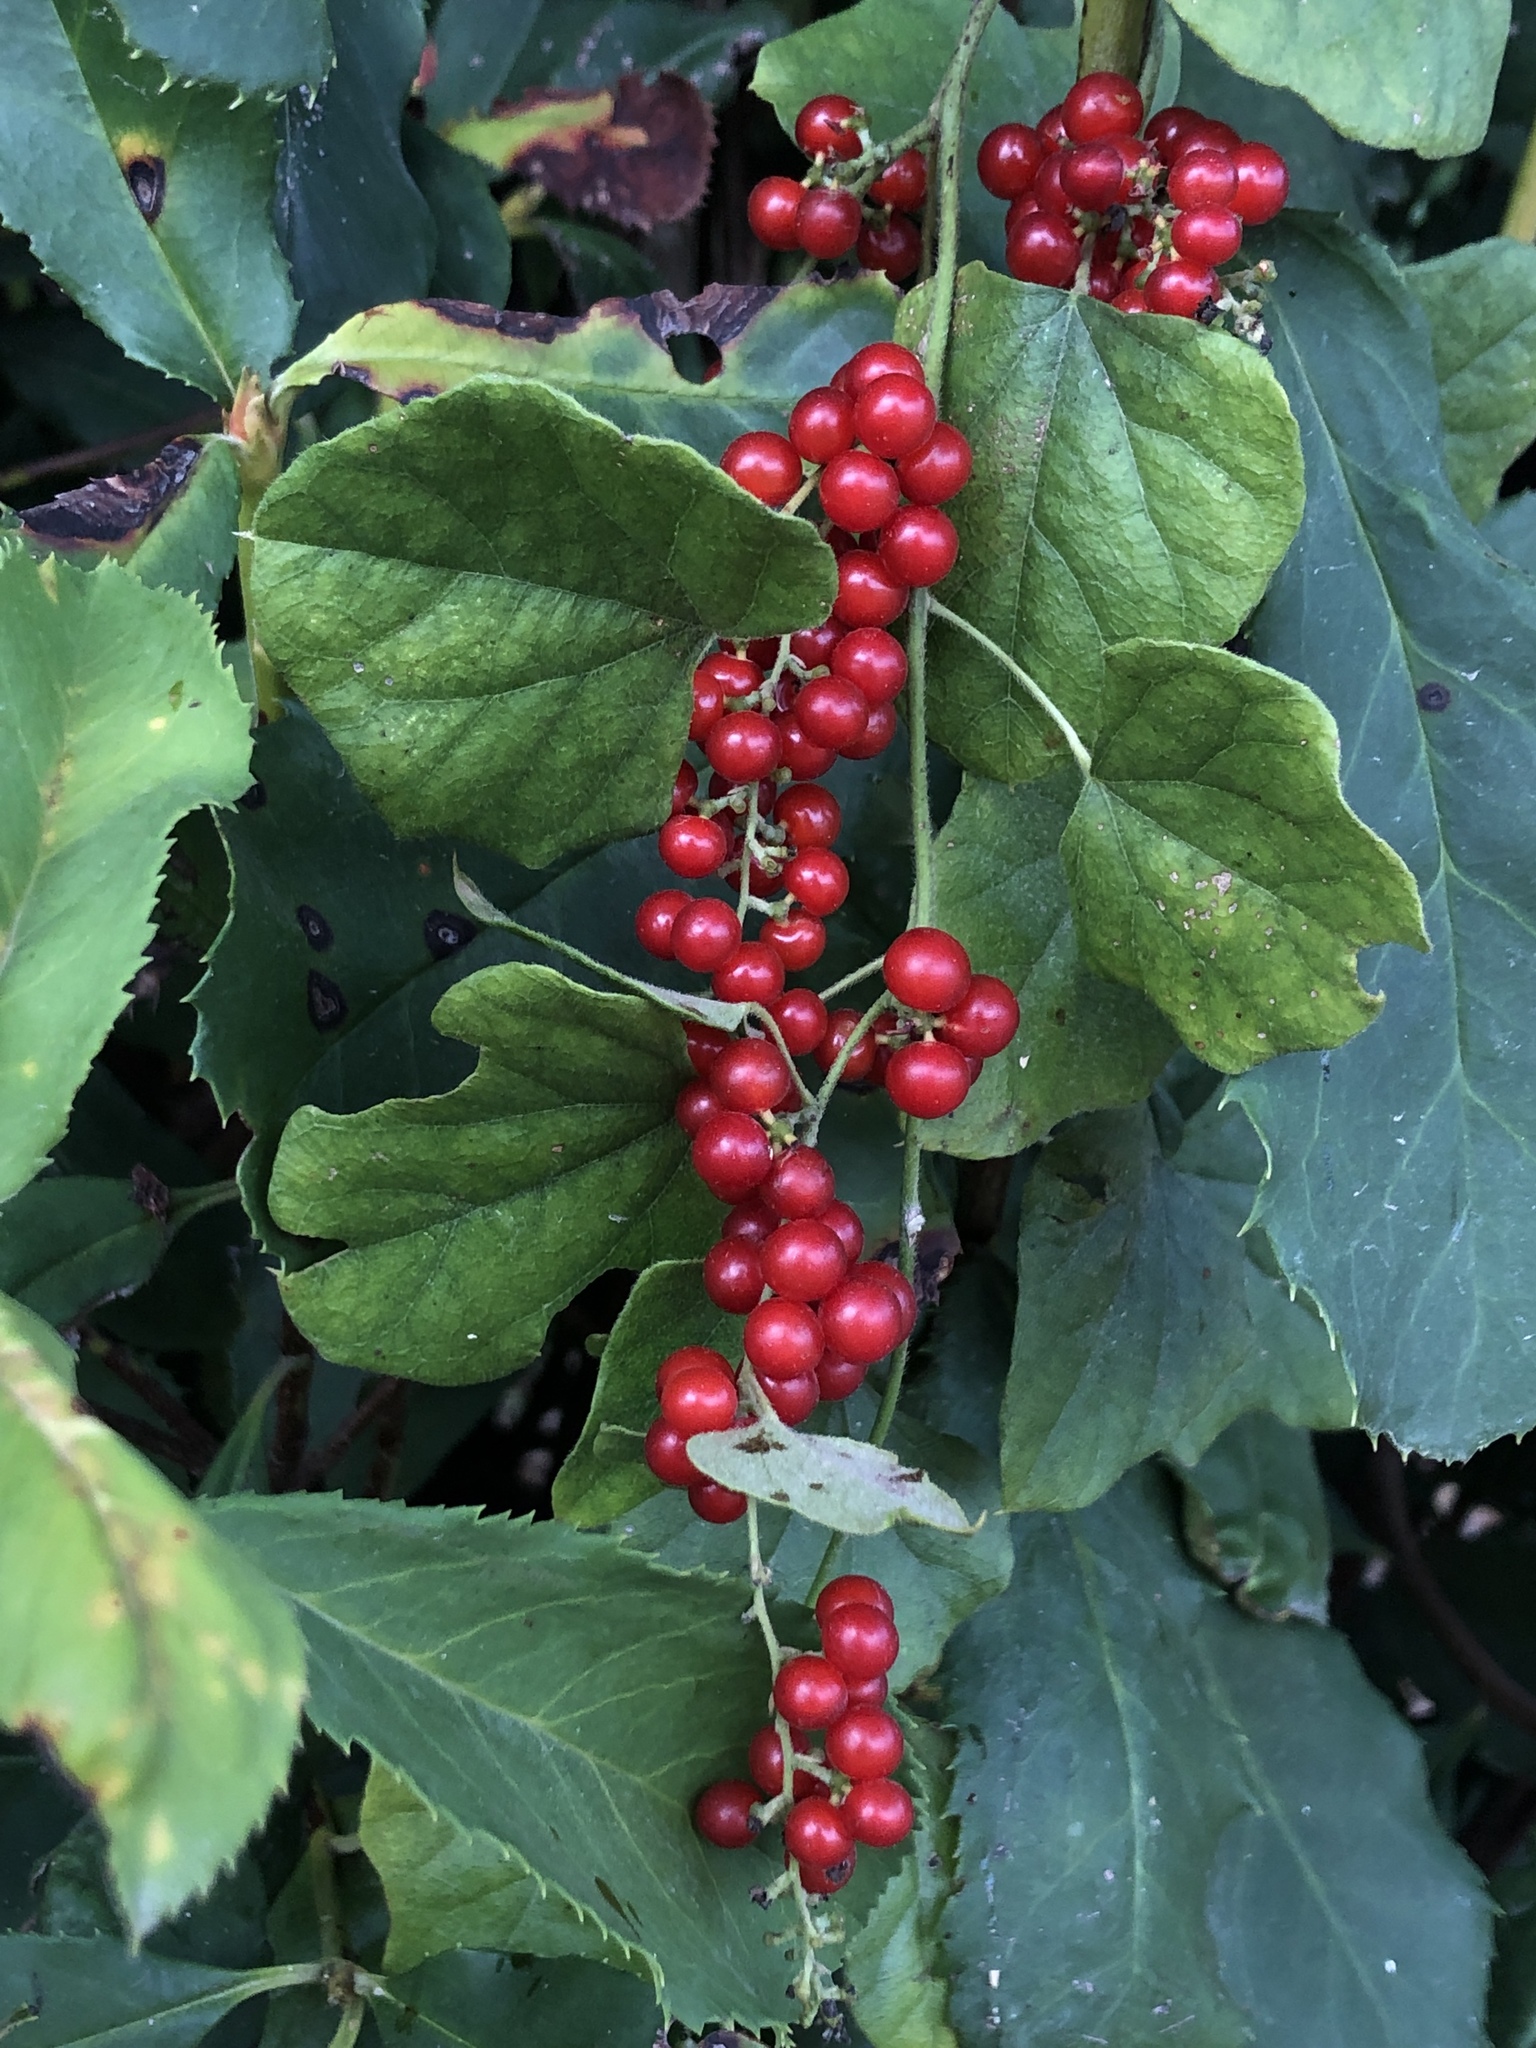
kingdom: Plantae
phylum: Tracheophyta
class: Magnoliopsida
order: Ranunculales
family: Menispermaceae
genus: Cocculus
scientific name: Cocculus carolinus
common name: Carolina moonseed
